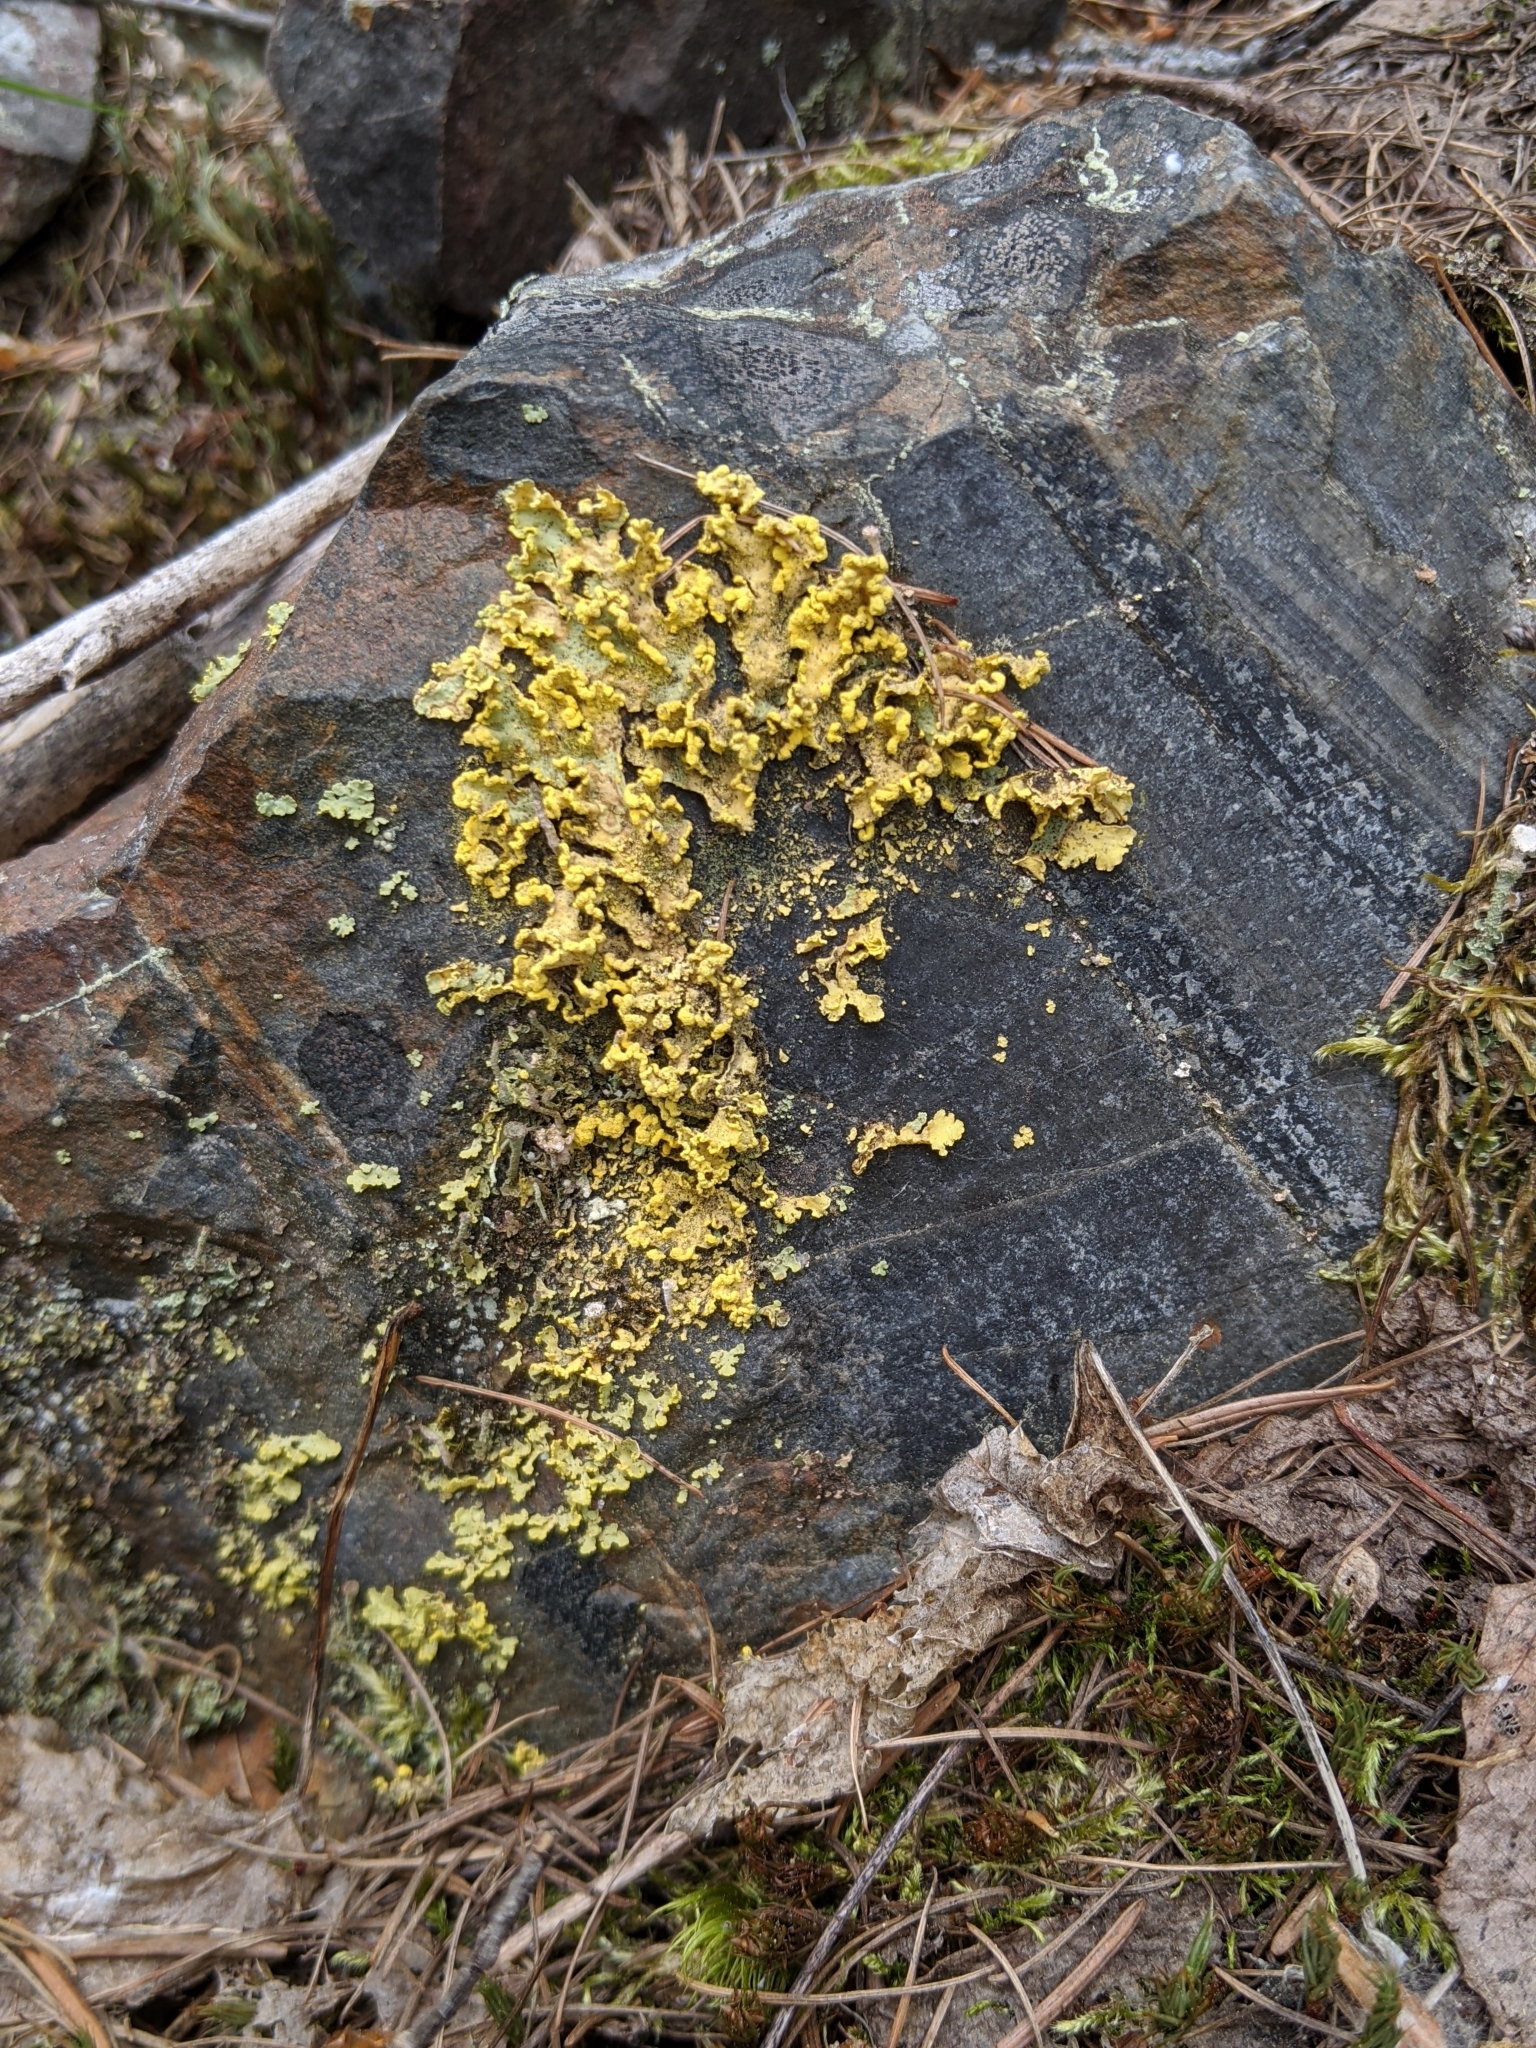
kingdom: Fungi
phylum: Ascomycota
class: Lecanoromycetes
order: Lecanorales
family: Parmeliaceae
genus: Vulpicida
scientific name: Vulpicida pinastri
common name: Powdered sunshine lichen
